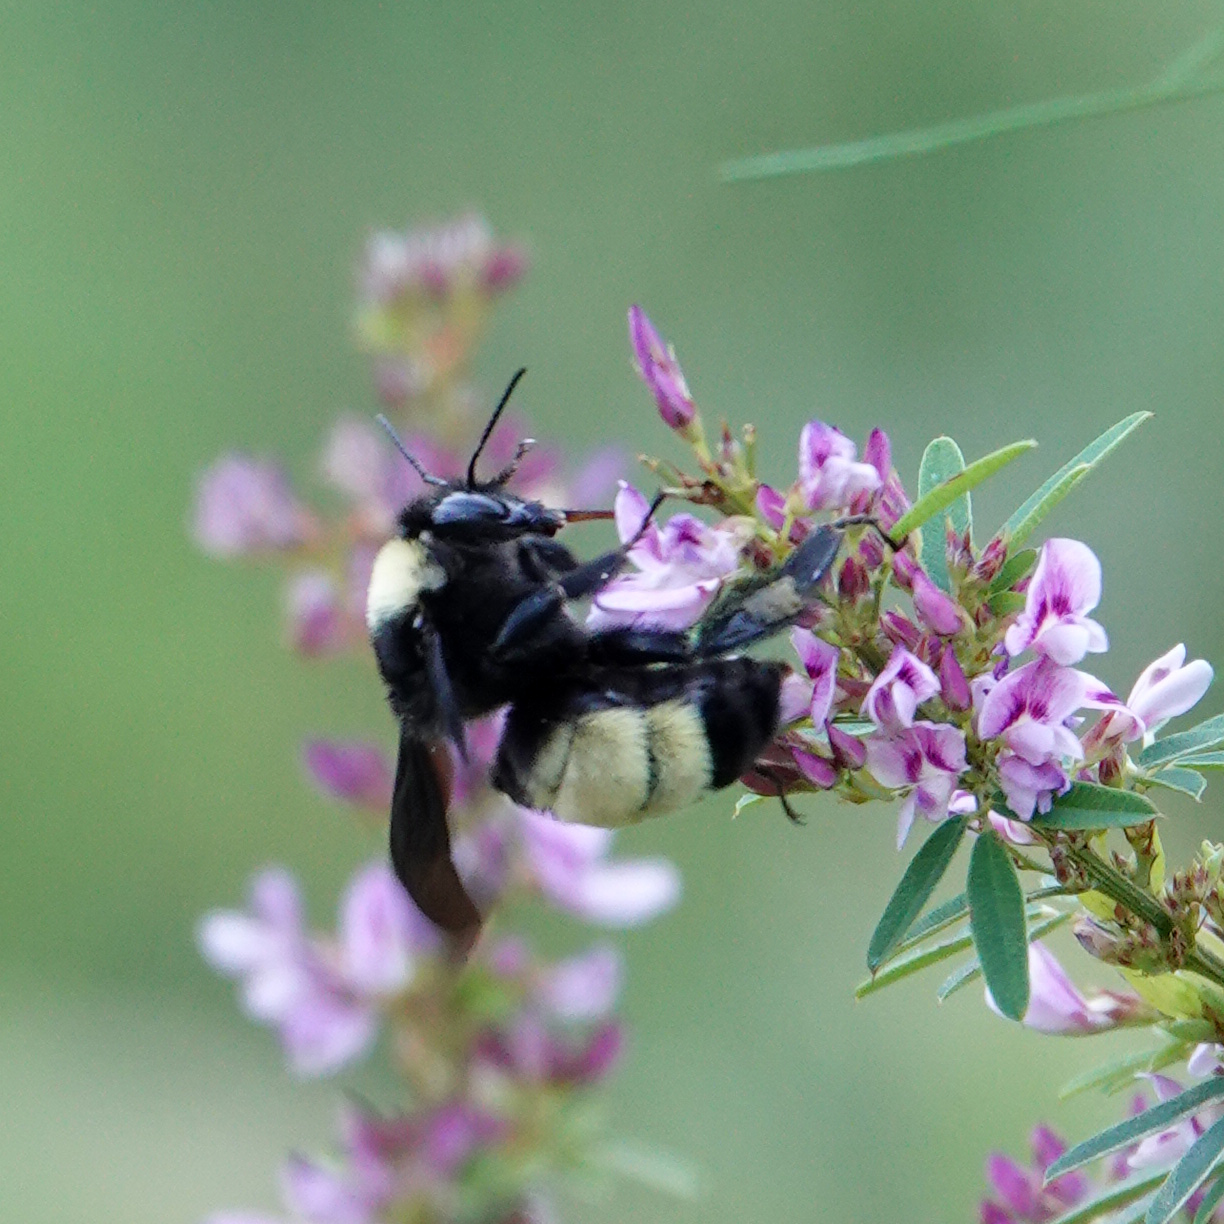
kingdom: Animalia
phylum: Arthropoda
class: Insecta
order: Hymenoptera
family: Apidae
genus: Bombus
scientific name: Bombus pensylvanicus
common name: Bumble bee
